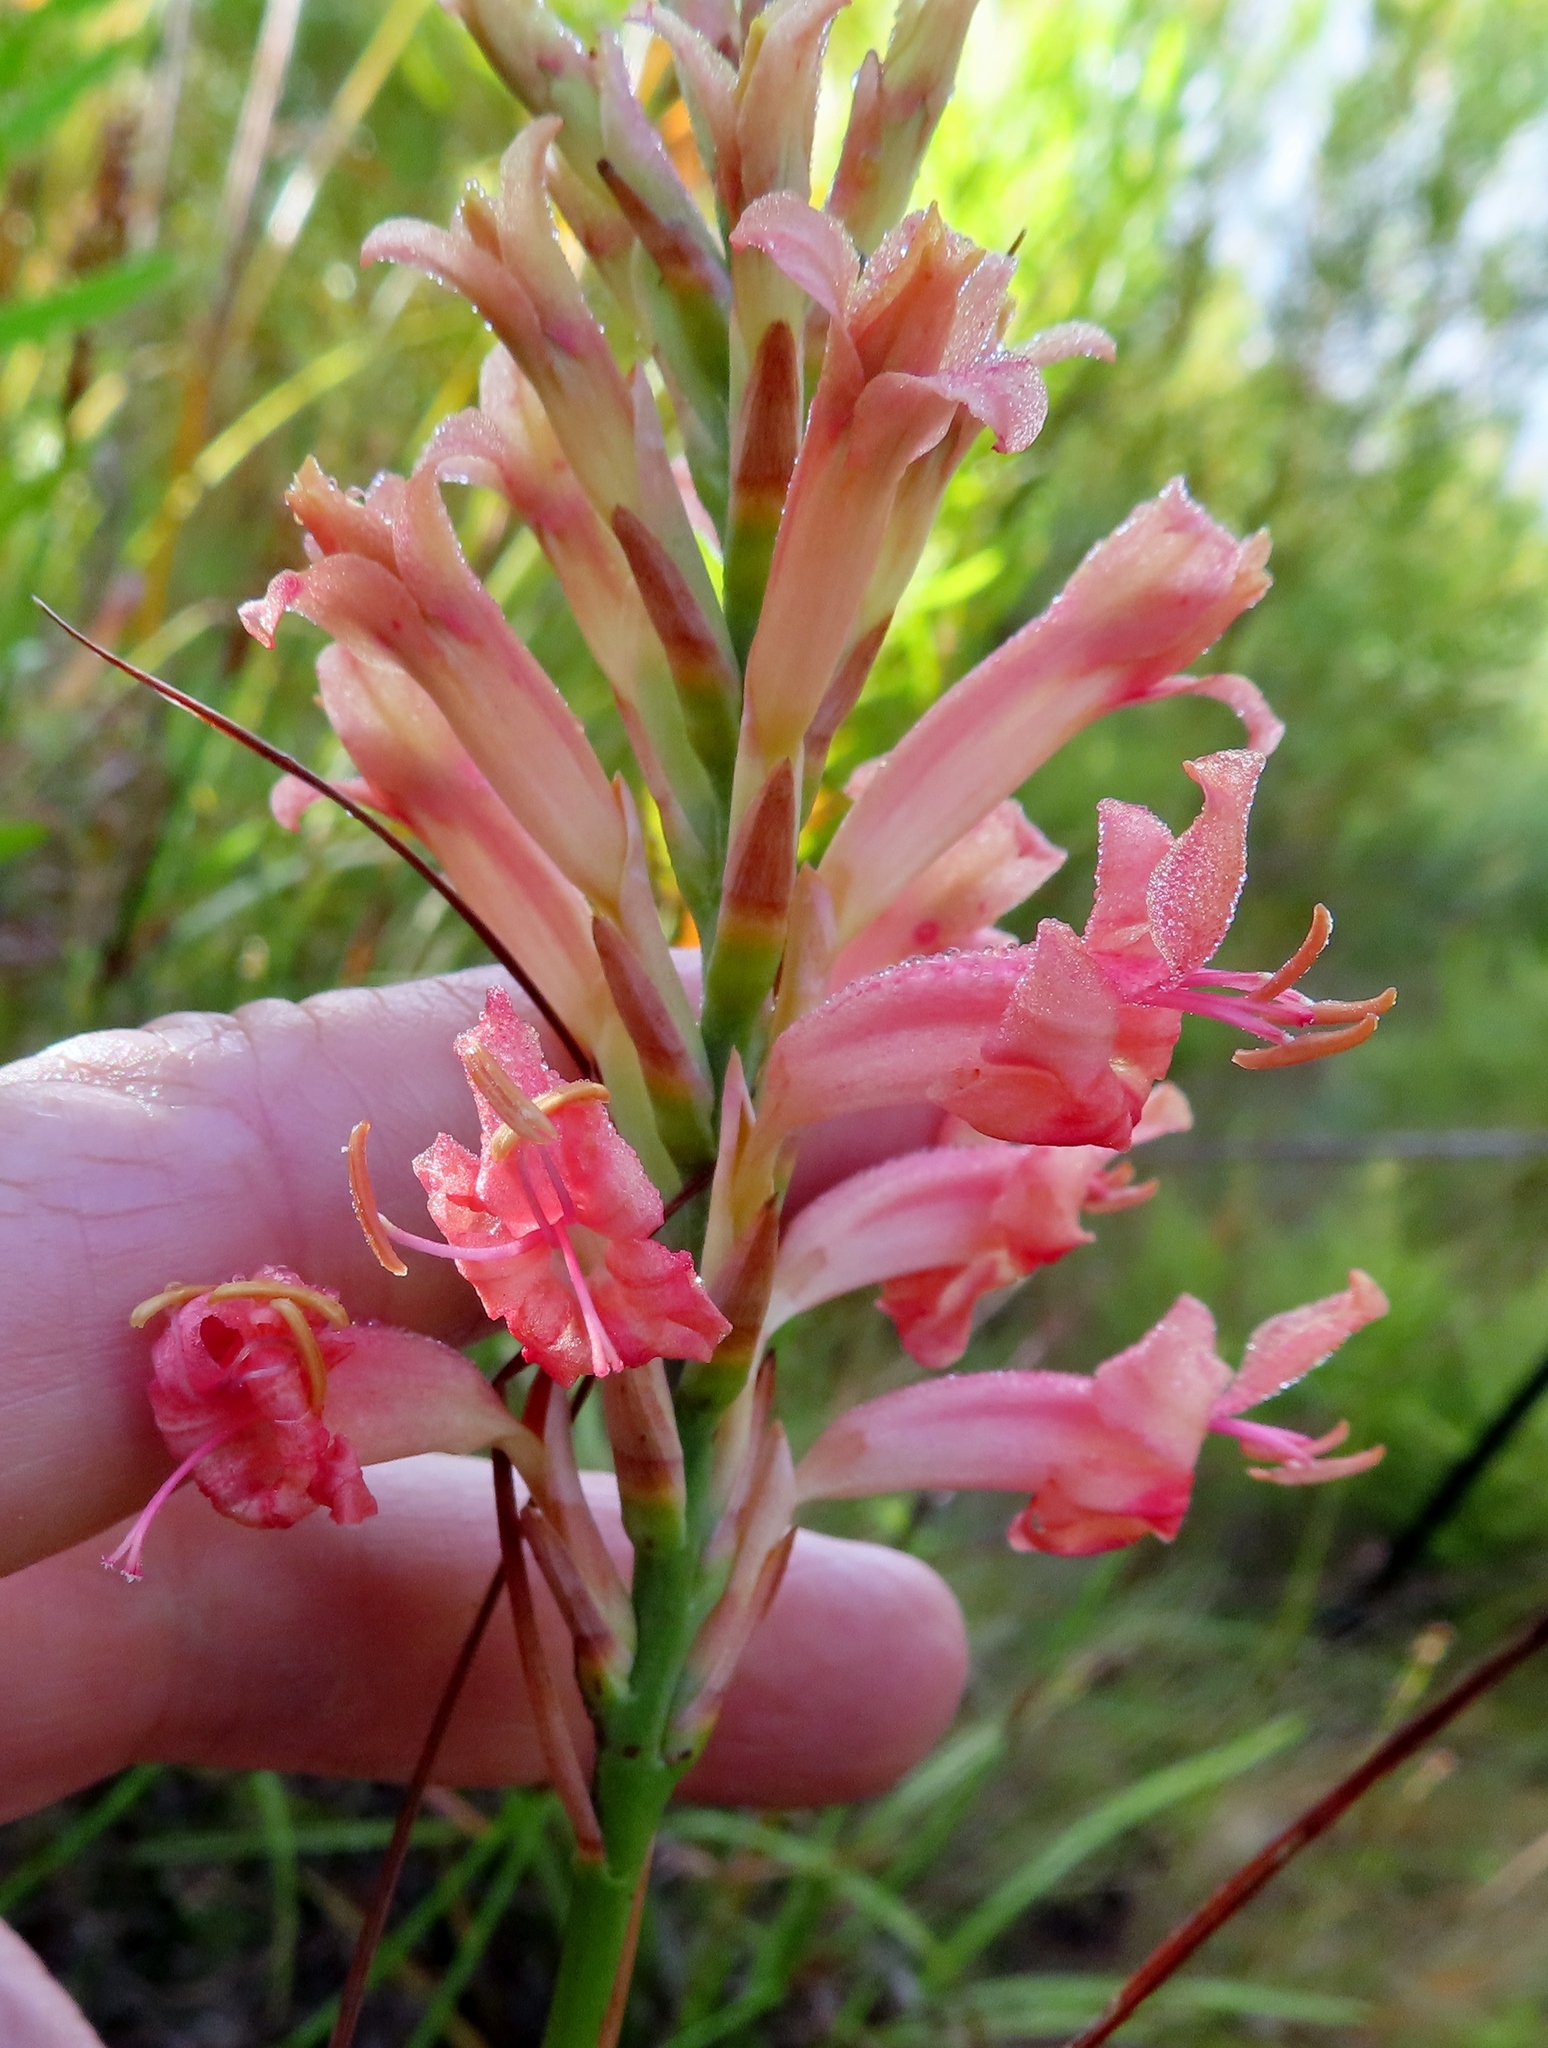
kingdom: Plantae
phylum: Tracheophyta
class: Liliopsida
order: Asparagales
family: Iridaceae
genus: Tritoniopsis
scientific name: Tritoniopsis antholyza
